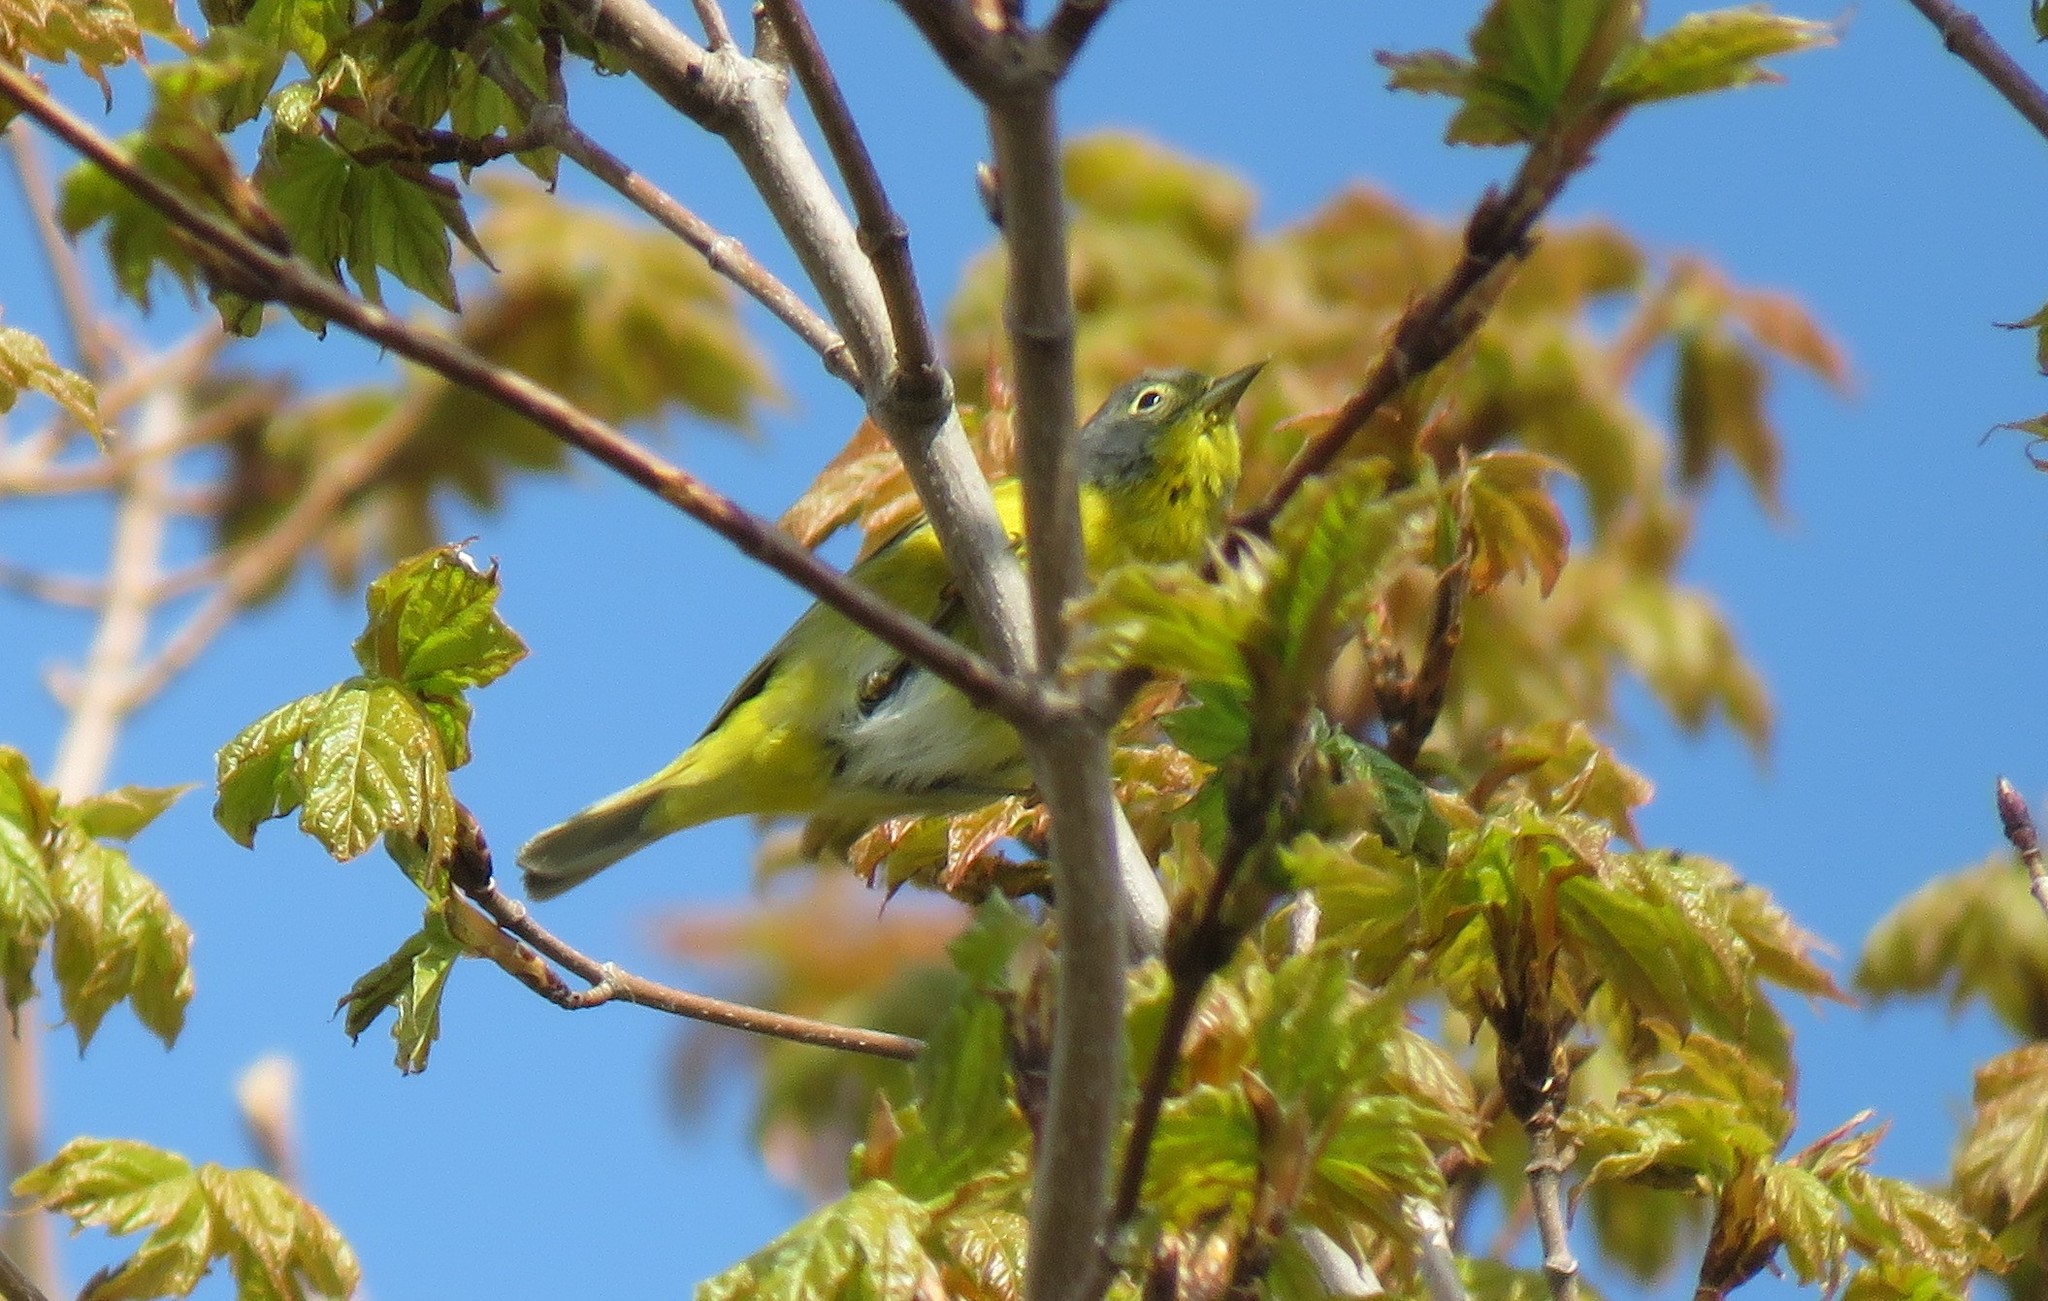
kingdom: Animalia
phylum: Chordata
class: Aves
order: Passeriformes
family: Parulidae
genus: Leiothlypis
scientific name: Leiothlypis ruficapilla
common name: Nashville warbler
